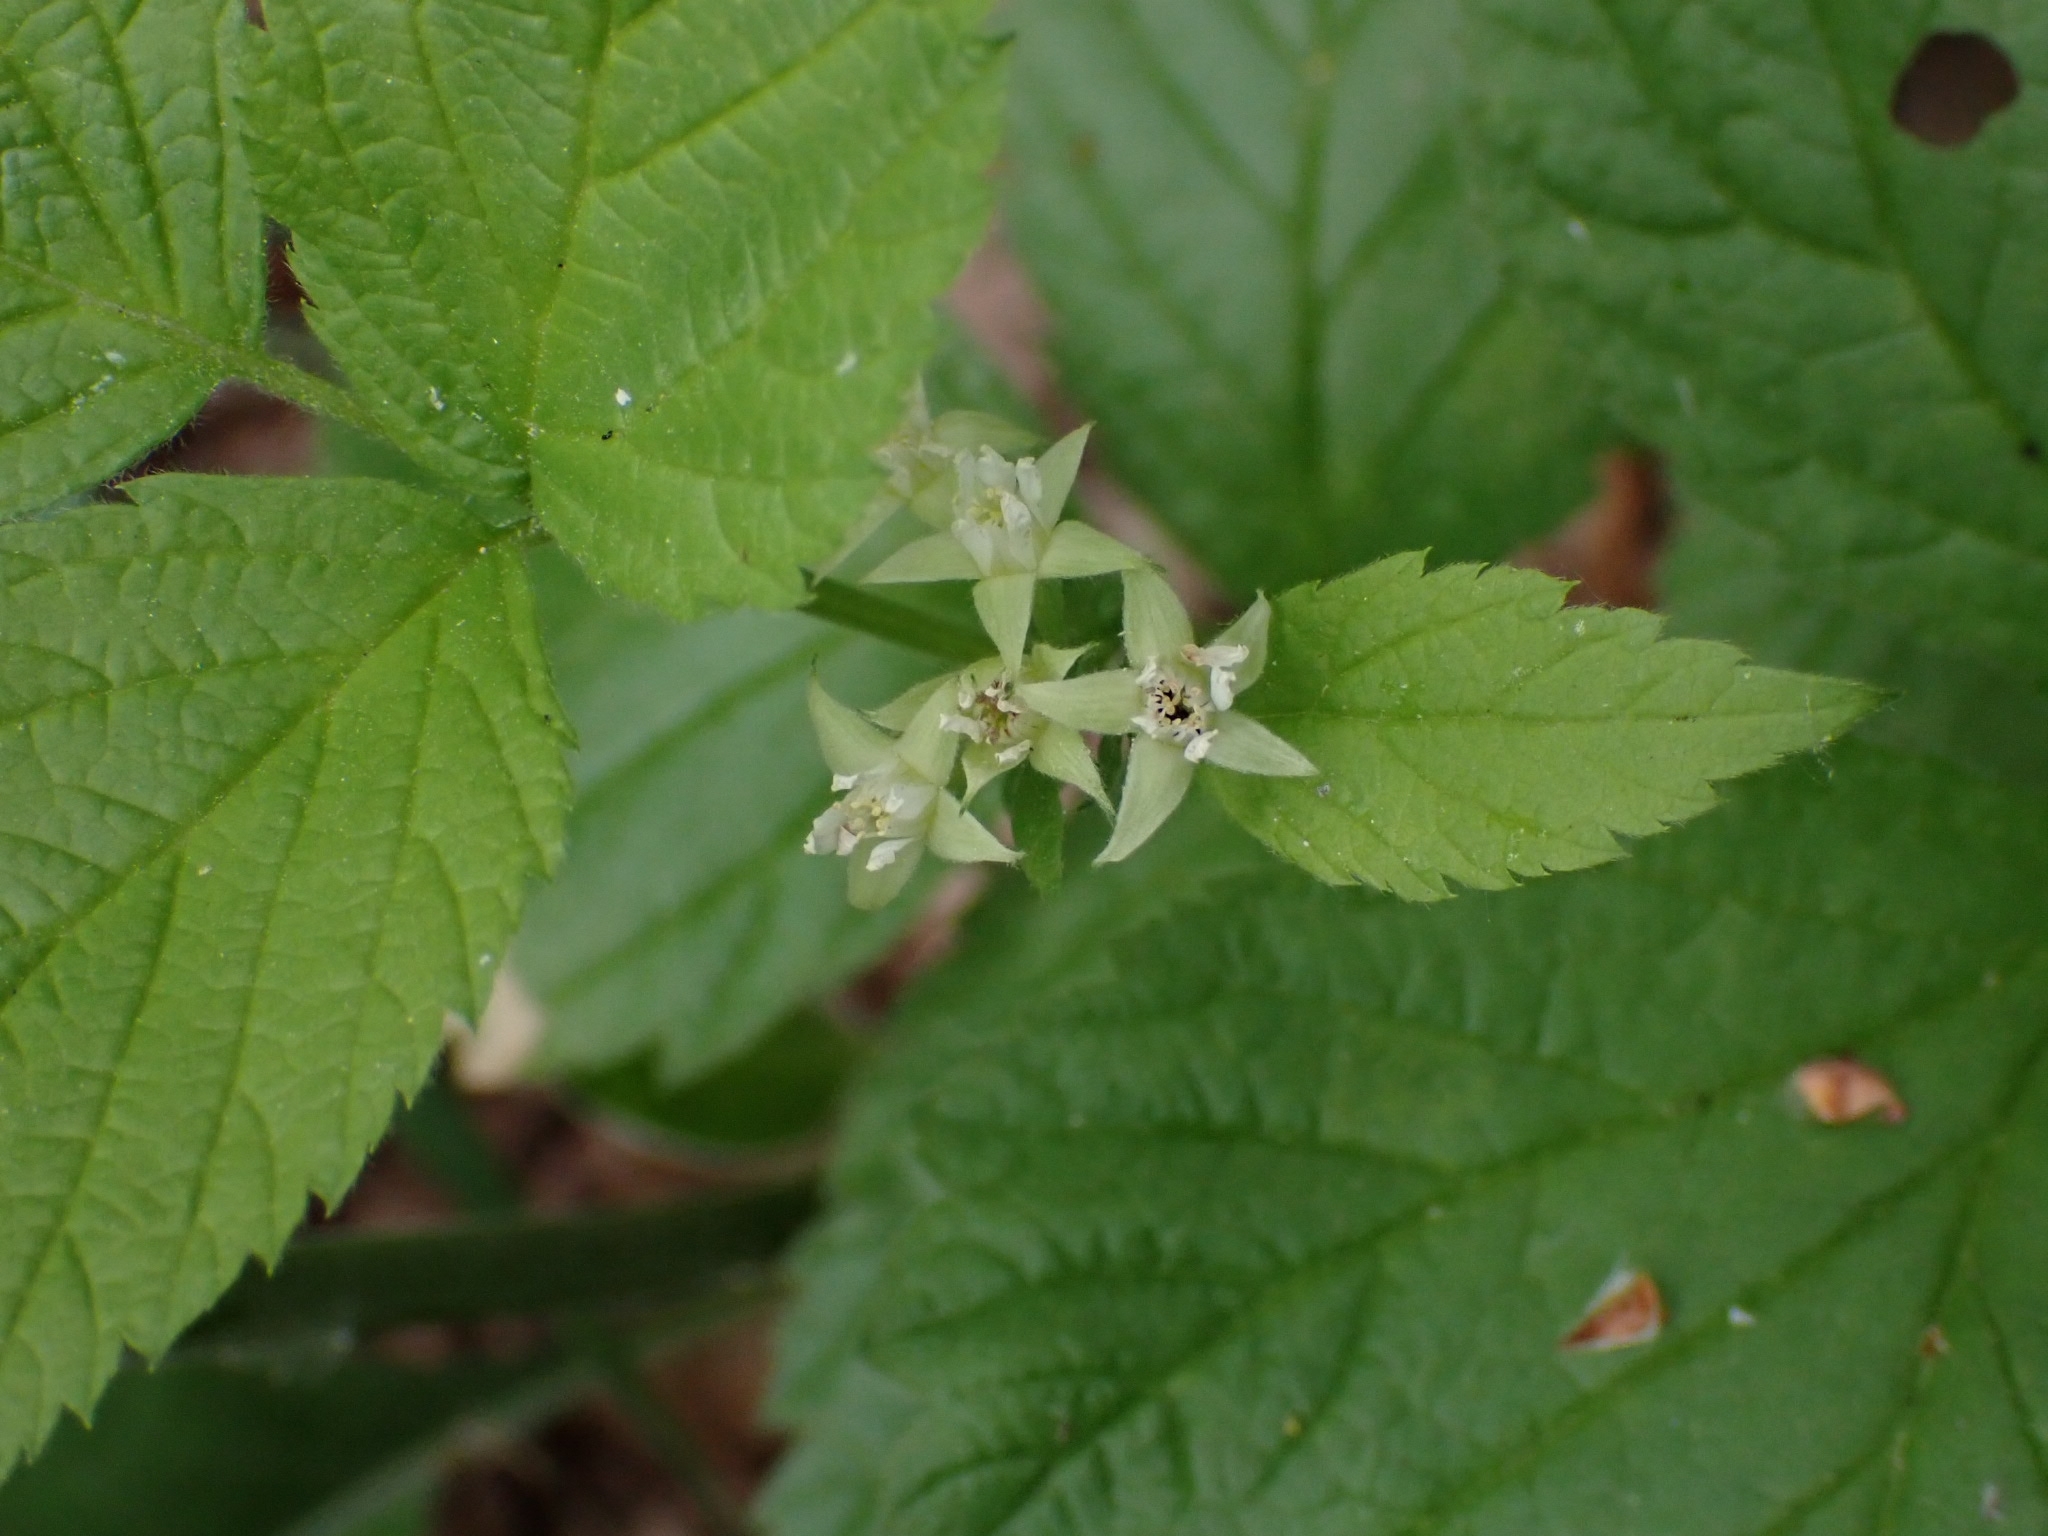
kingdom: Plantae
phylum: Tracheophyta
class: Magnoliopsida
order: Rosales
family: Rosaceae
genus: Rubus
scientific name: Rubus saxatilis
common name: Stone bramble
